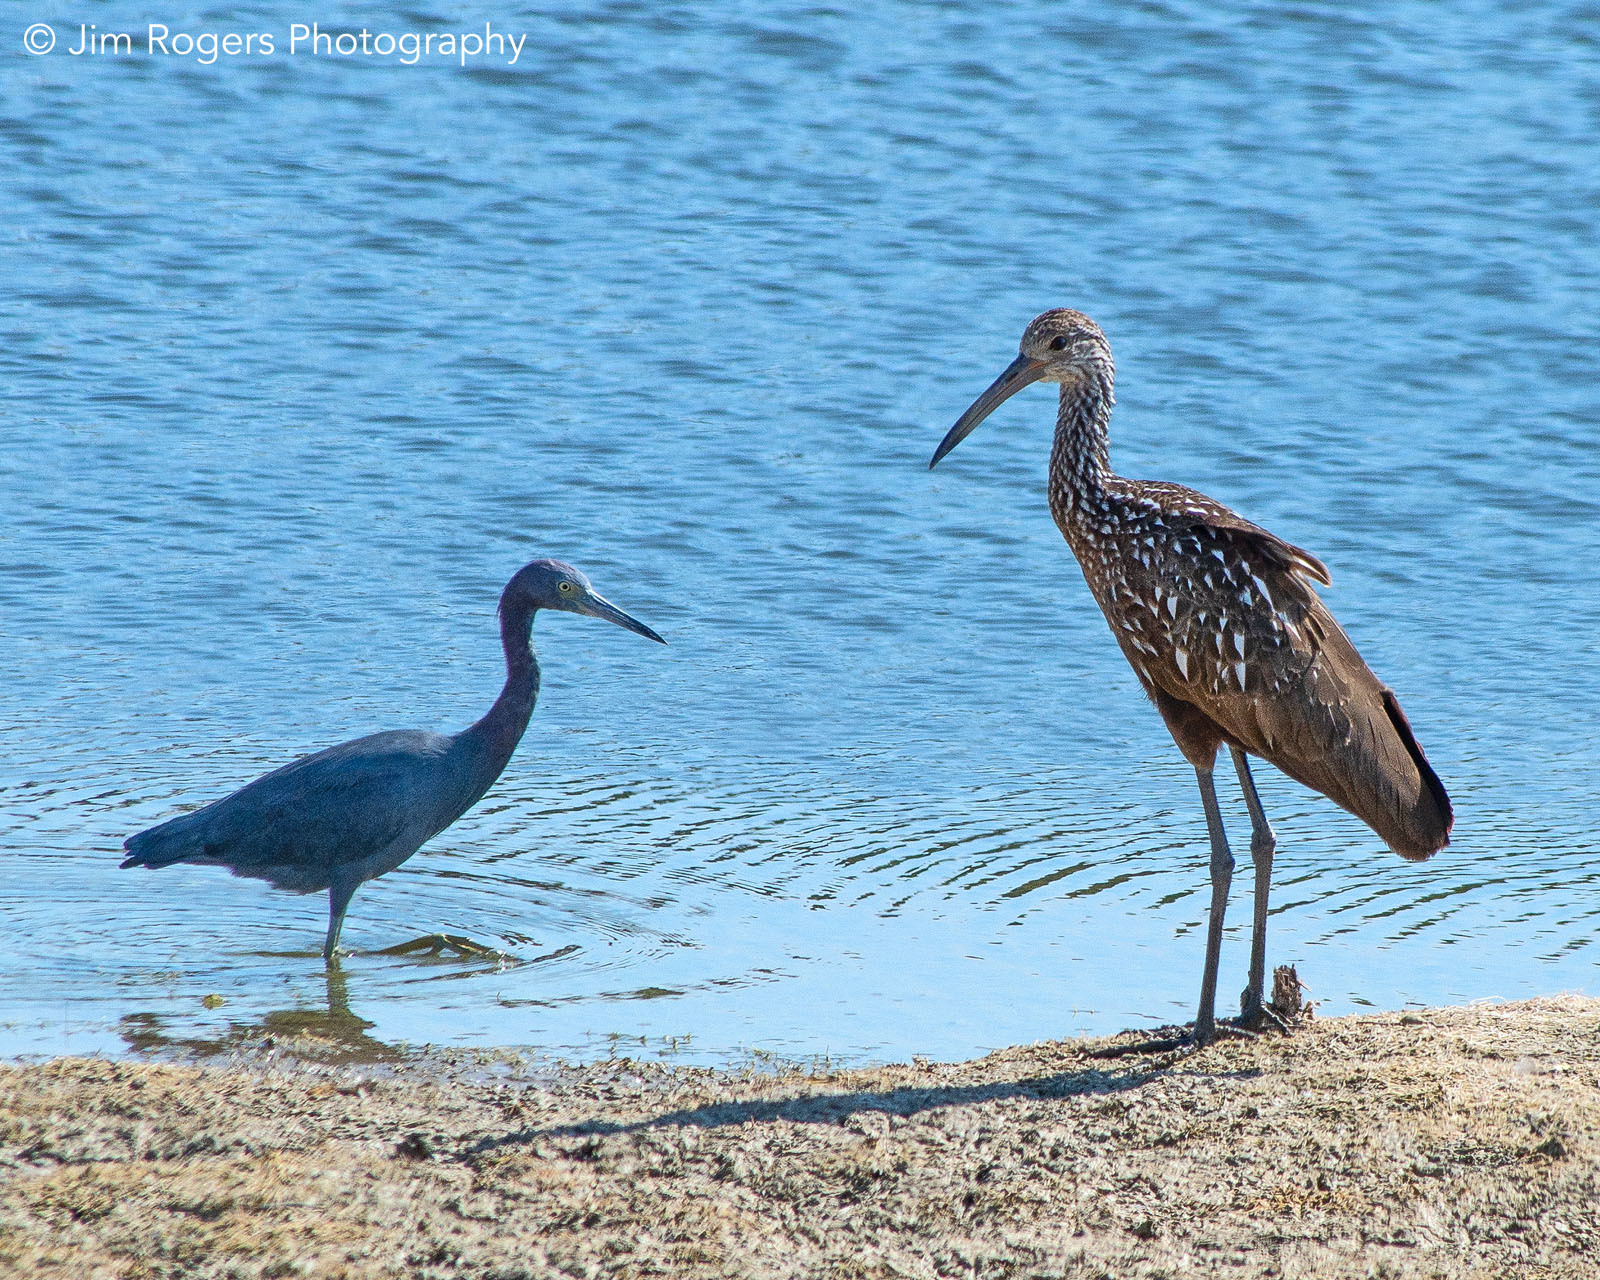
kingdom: Animalia
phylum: Chordata
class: Aves
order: Gruiformes
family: Aramidae
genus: Aramus
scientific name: Aramus guarauna
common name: Limpkin
